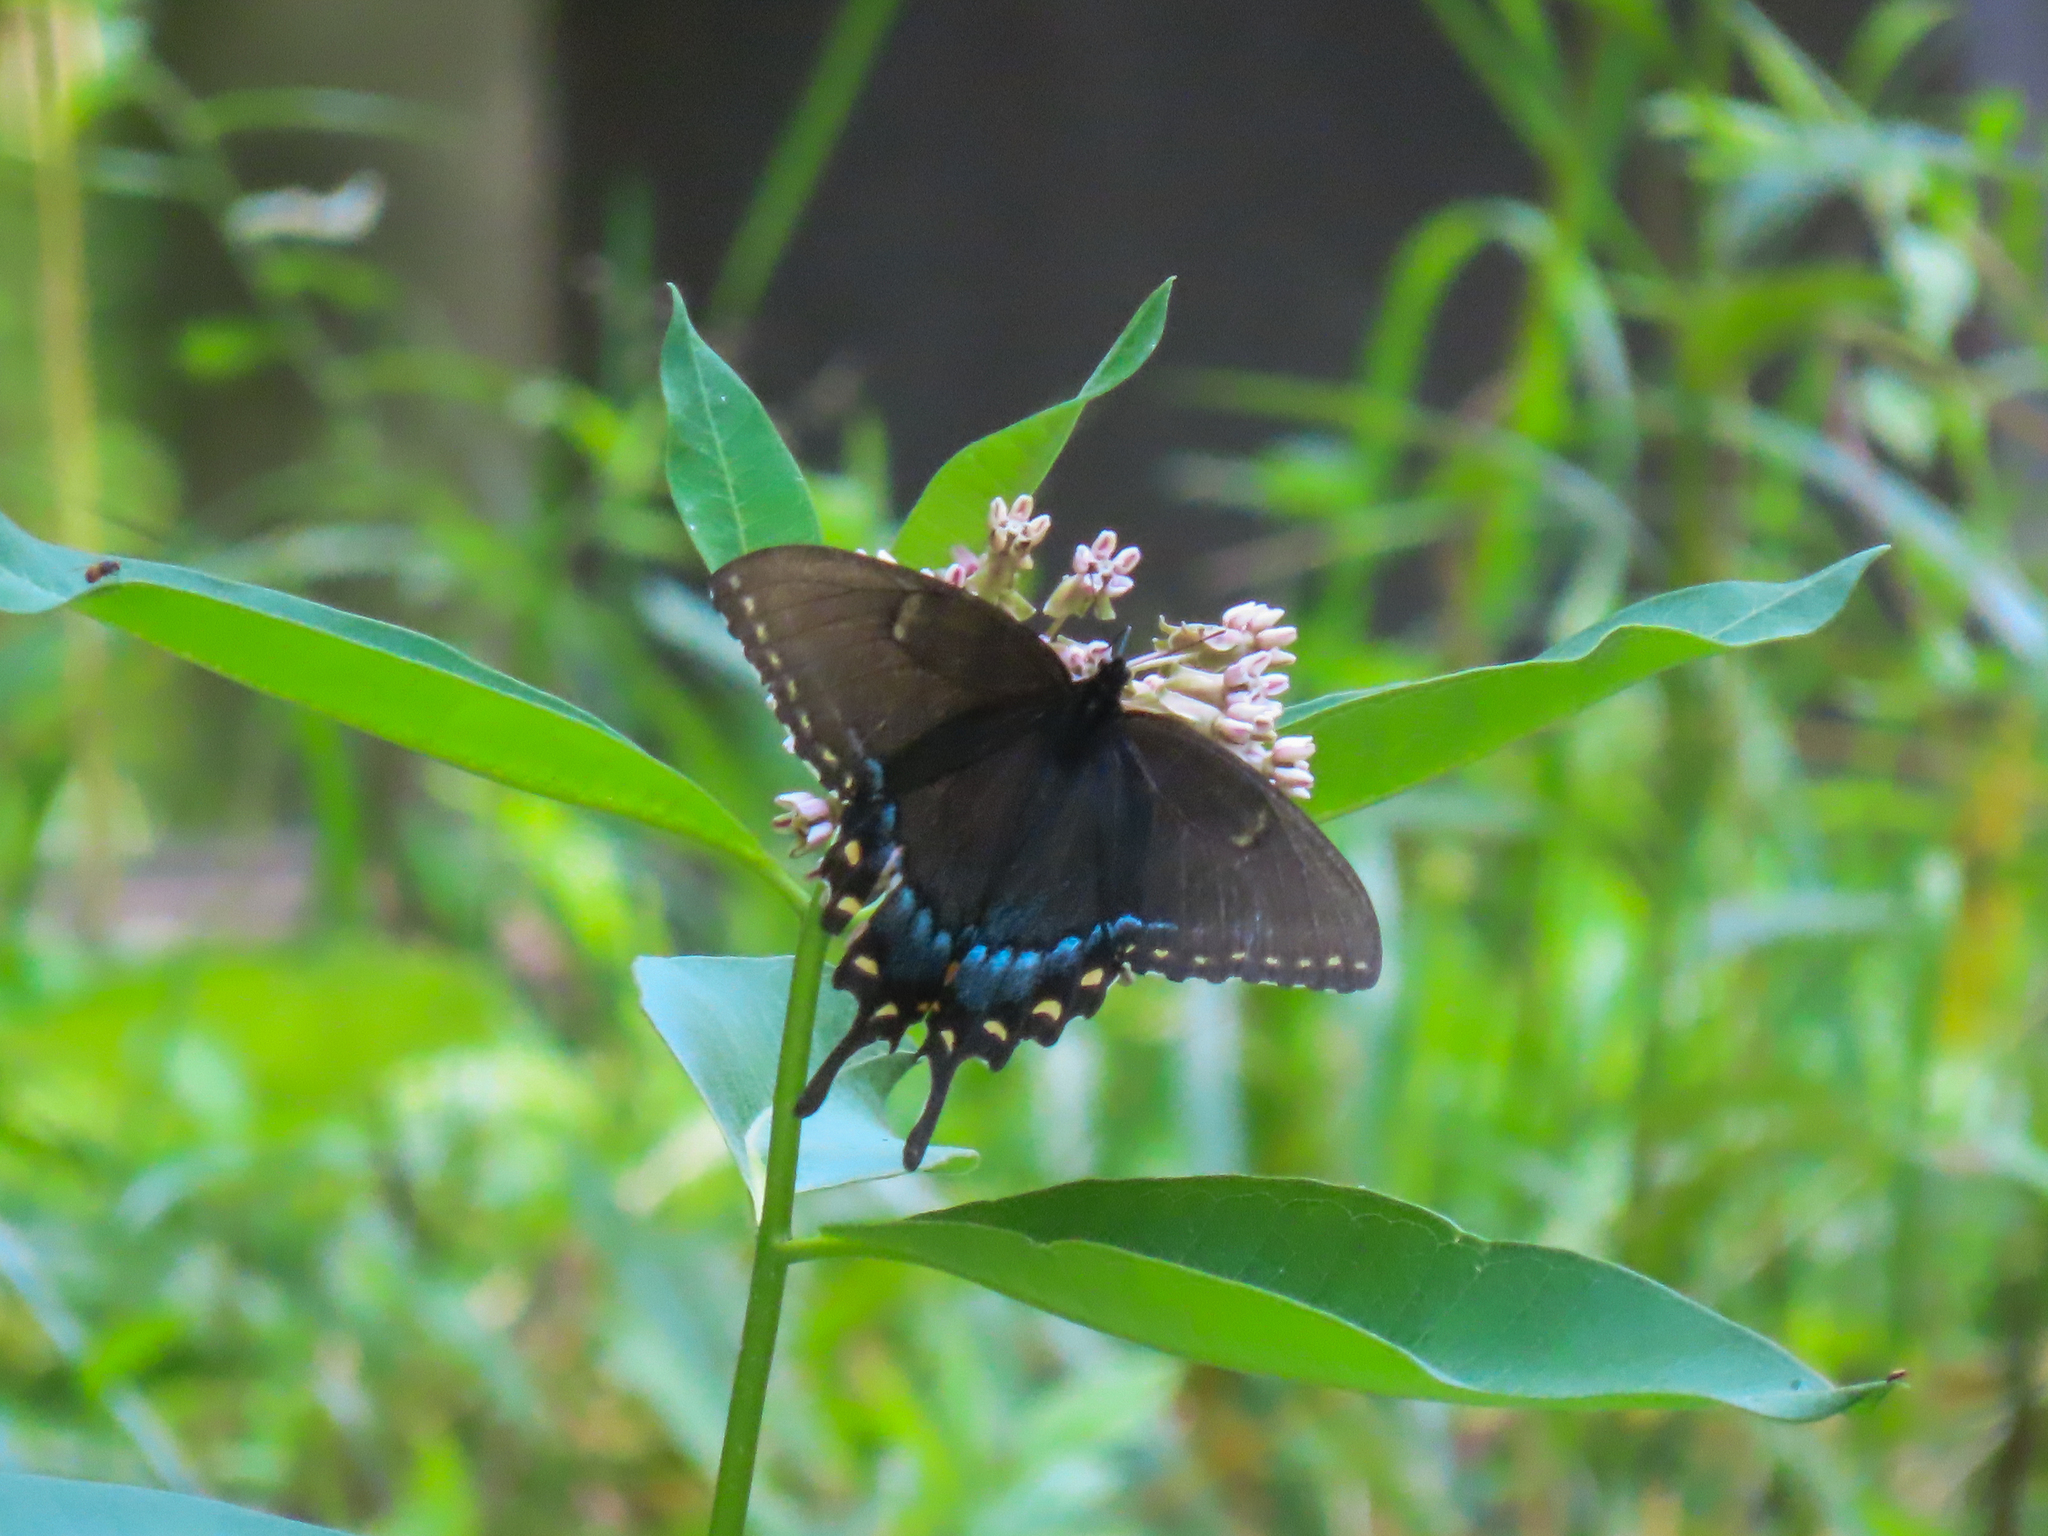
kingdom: Animalia
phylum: Arthropoda
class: Insecta
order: Lepidoptera
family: Papilionidae
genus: Papilio
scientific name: Papilio glaucus
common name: Tiger swallowtail
